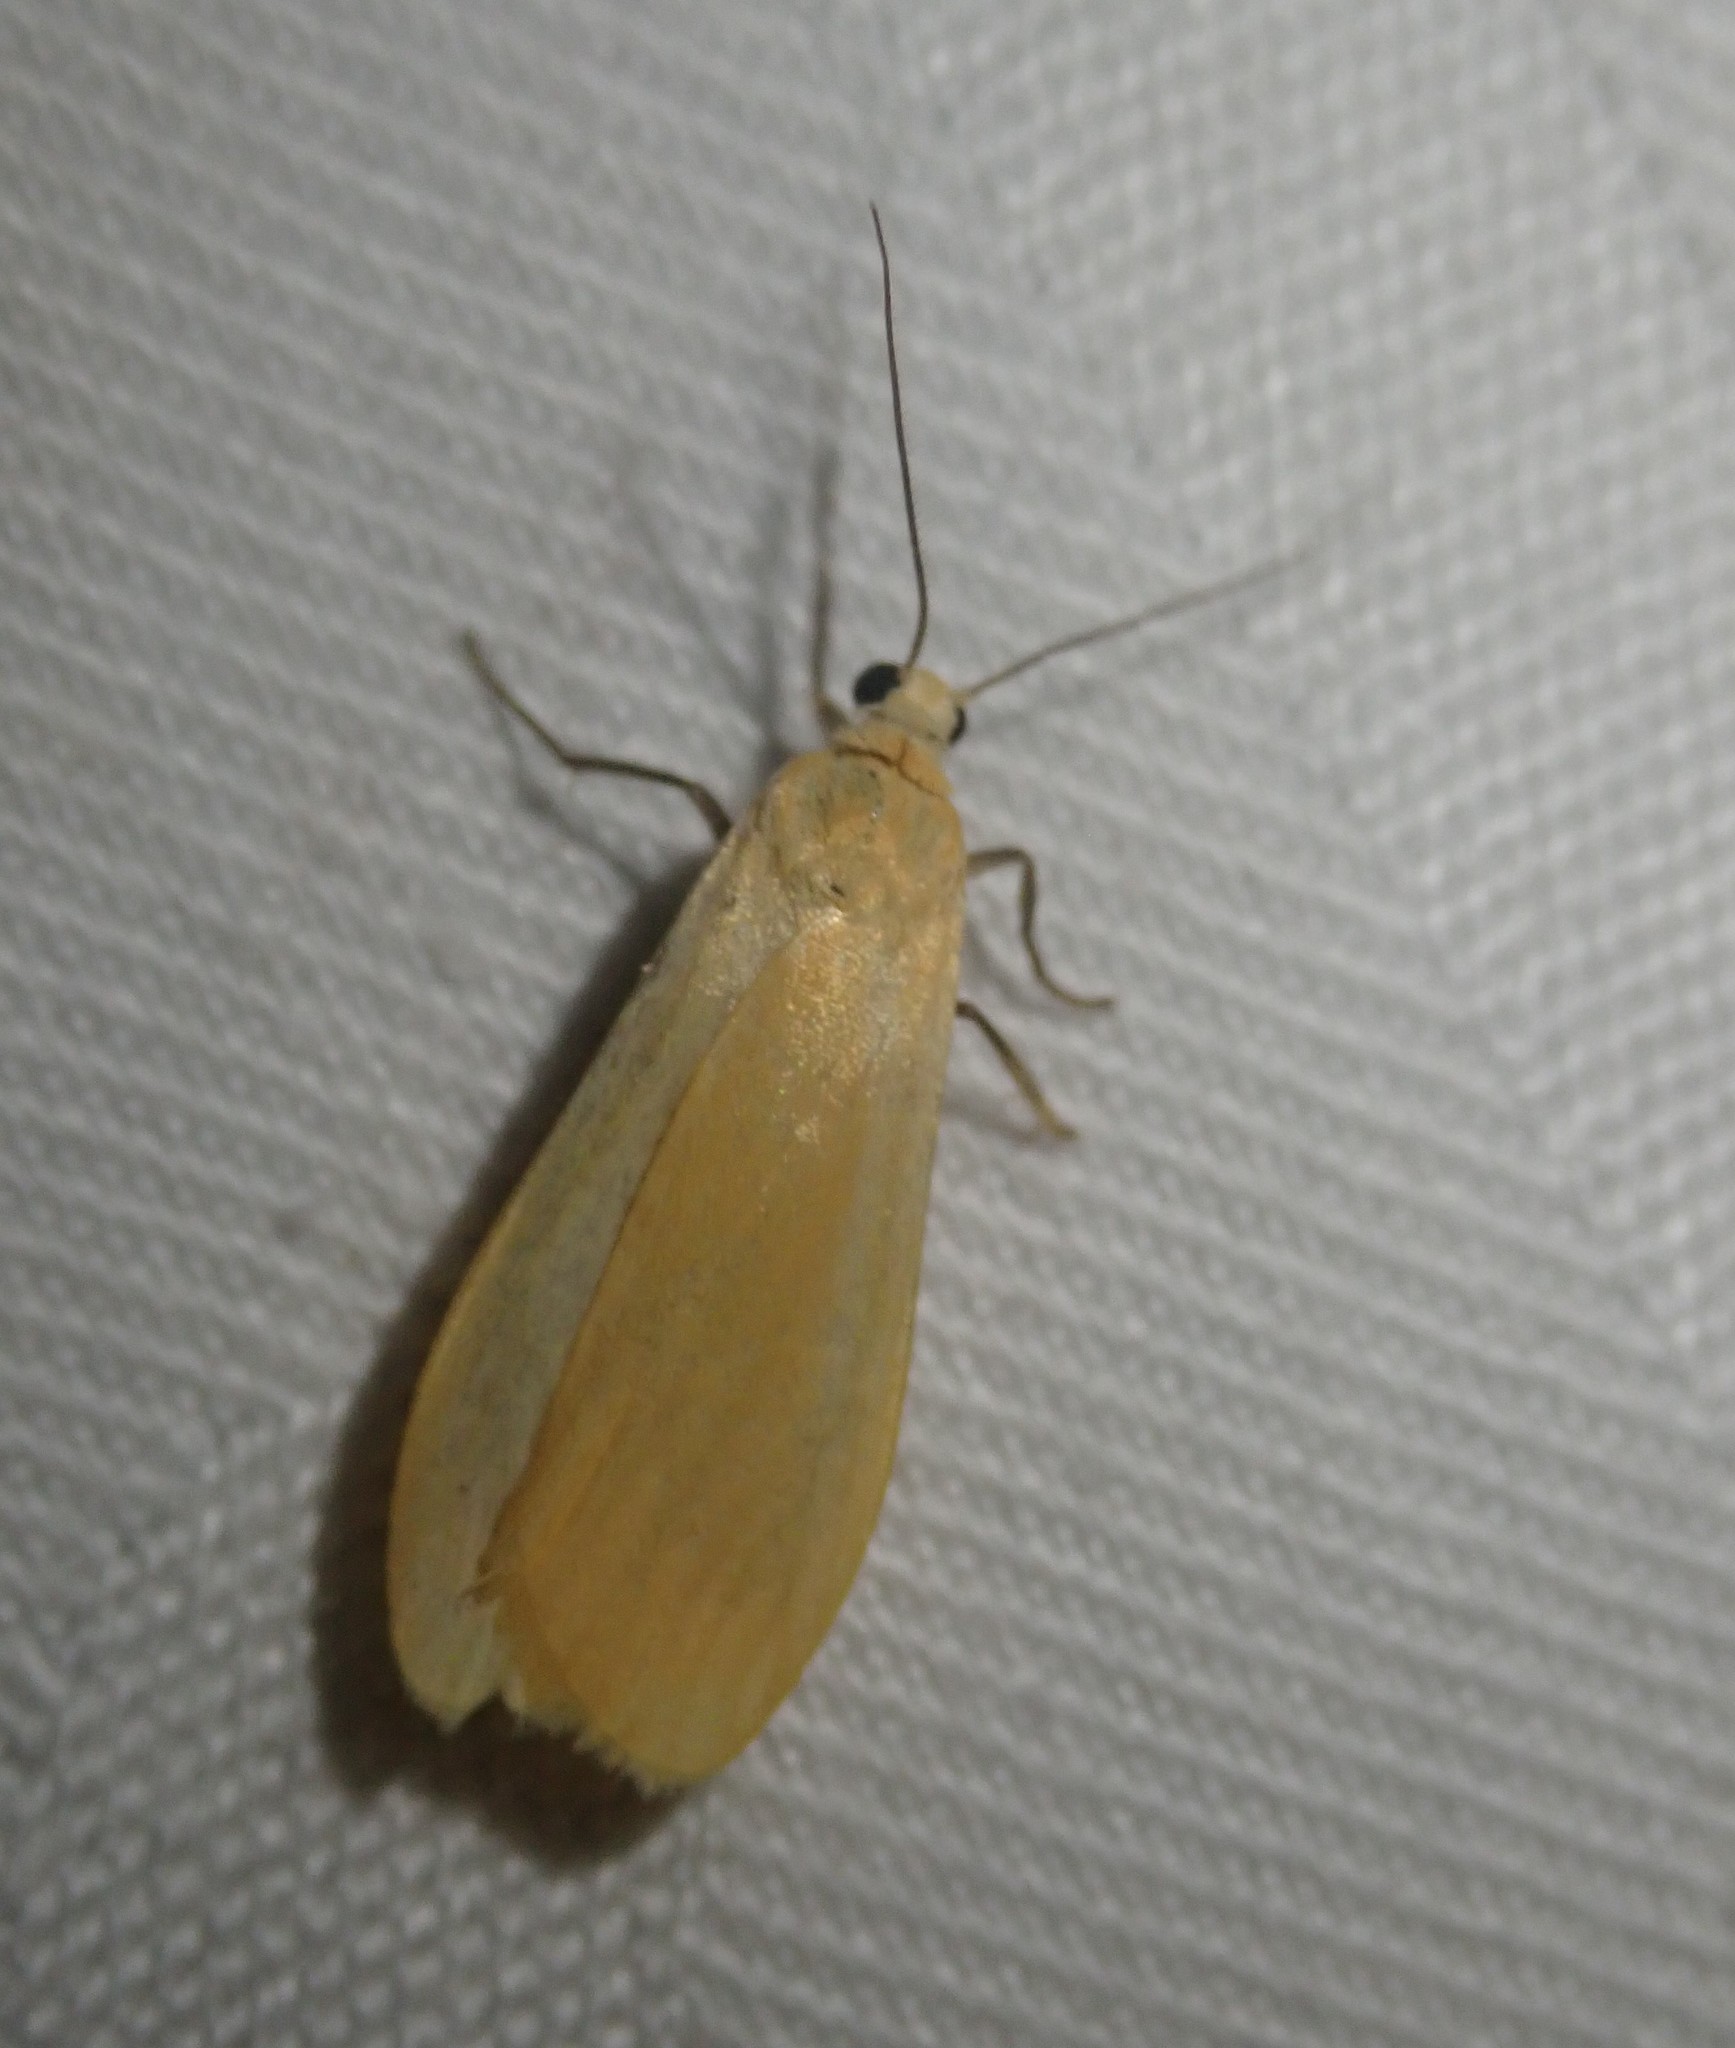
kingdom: Animalia
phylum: Arthropoda
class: Insecta
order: Lepidoptera
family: Erebidae
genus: Wittia
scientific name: Wittia sororcula
